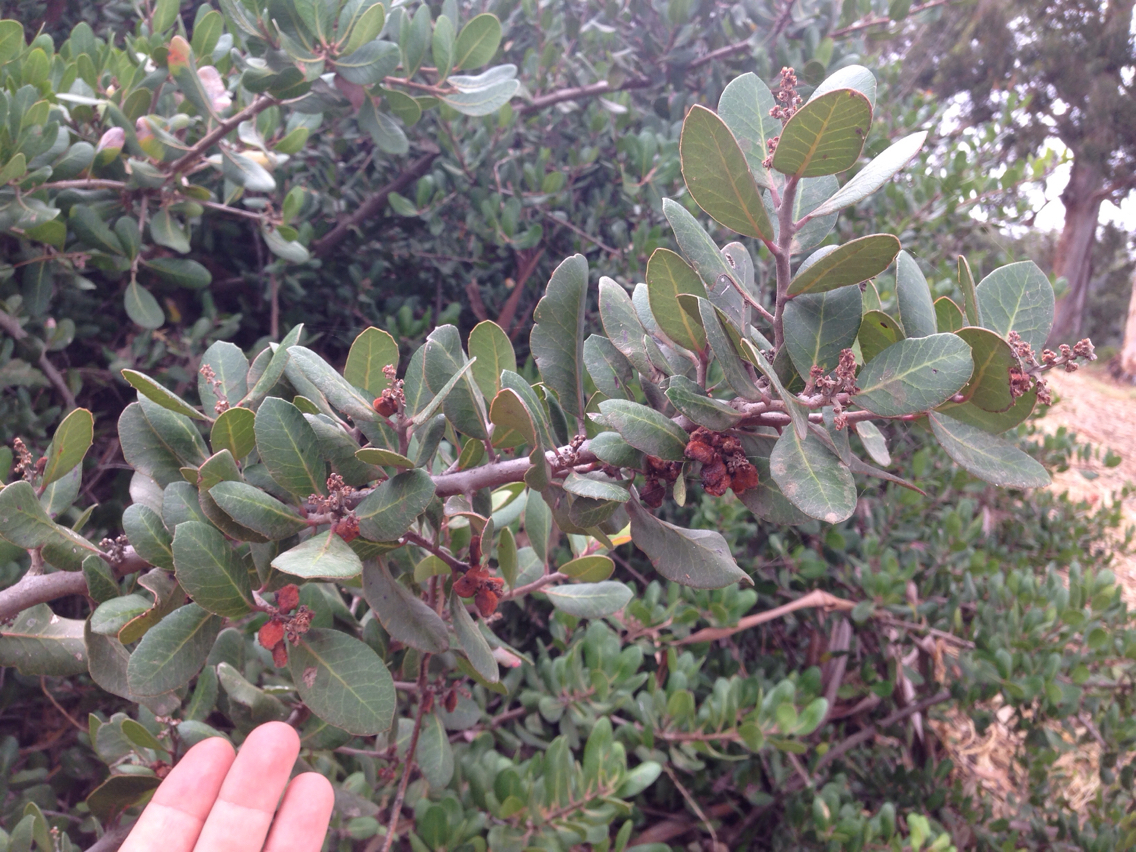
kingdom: Plantae
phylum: Tracheophyta
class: Magnoliopsida
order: Sapindales
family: Anacardiaceae
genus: Rhus
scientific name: Rhus integrifolia
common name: Lemonade sumac
